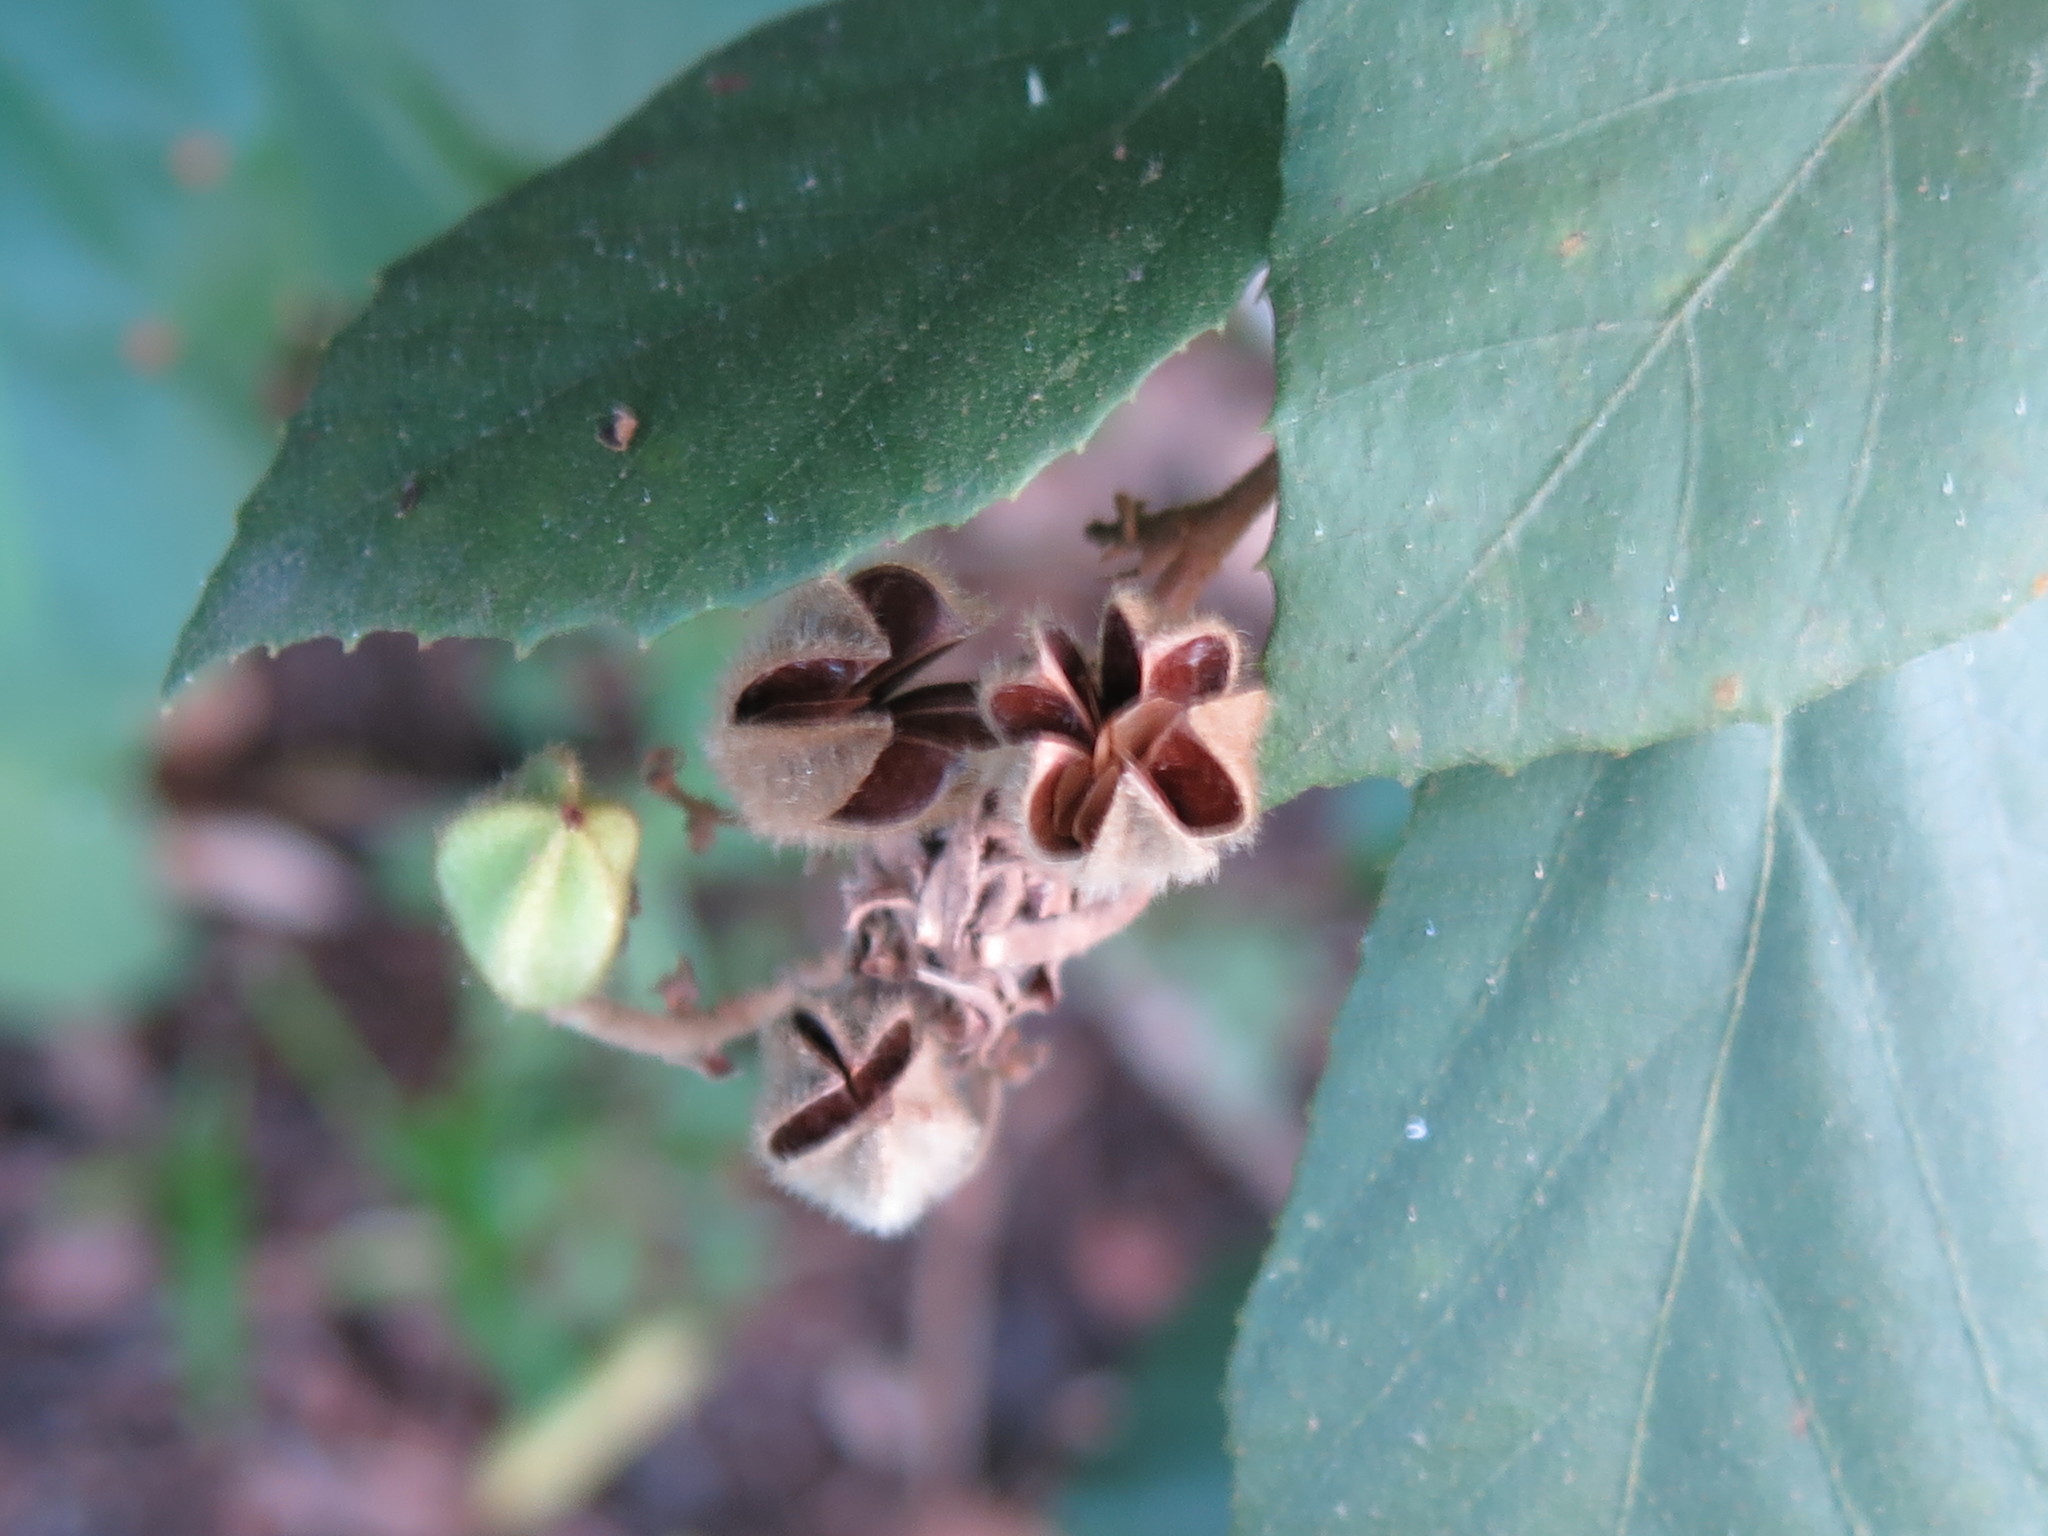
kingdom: Plantae
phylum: Tracheophyta
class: Magnoliopsida
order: Malvales
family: Malvaceae
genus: Luehea
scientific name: Luehea ochrophylla
